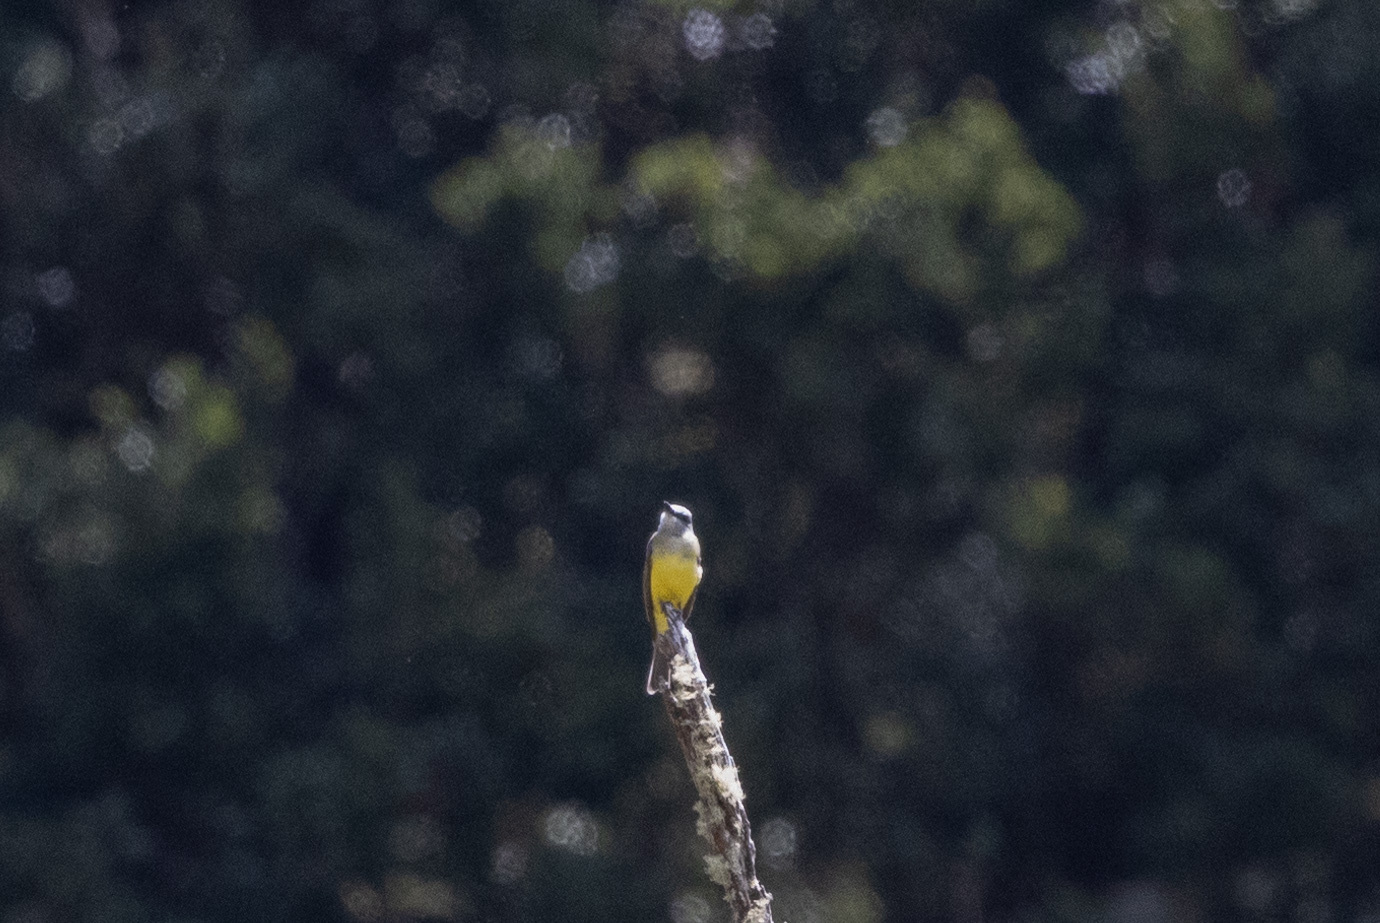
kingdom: Animalia
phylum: Chordata
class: Aves
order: Passeriformes
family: Tyrannidae
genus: Tyrannus
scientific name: Tyrannus melancholicus
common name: Tropical kingbird
